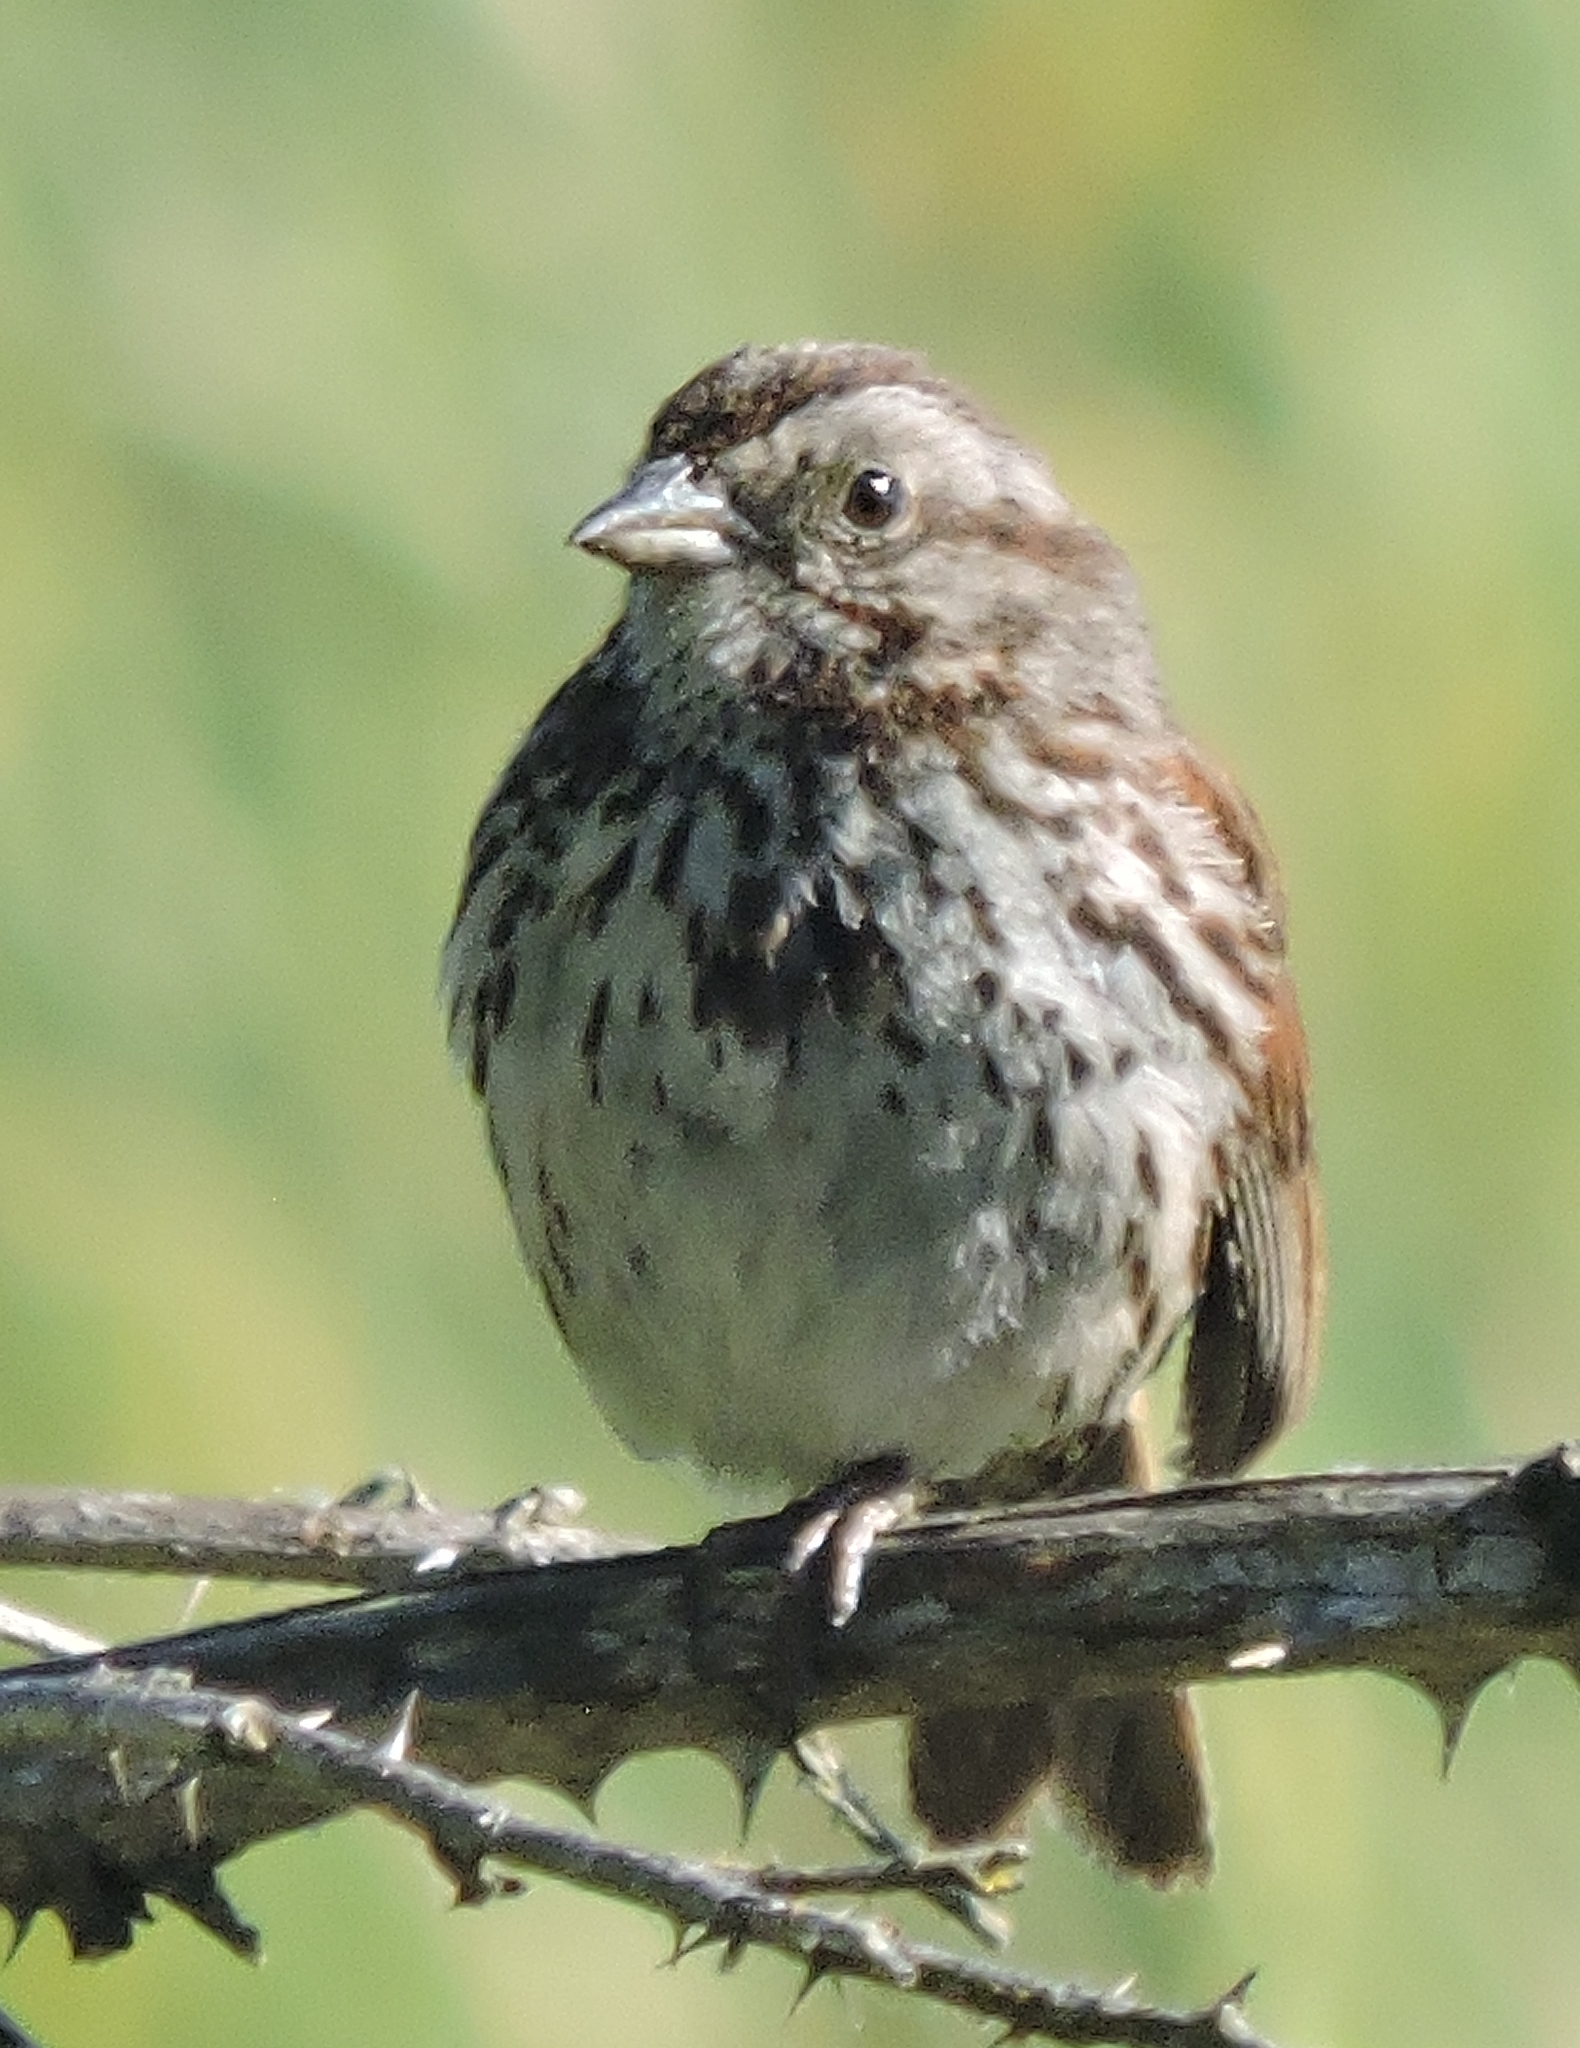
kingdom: Animalia
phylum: Chordata
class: Aves
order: Passeriformes
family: Passerellidae
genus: Melospiza
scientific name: Melospiza melodia
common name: Song sparrow
